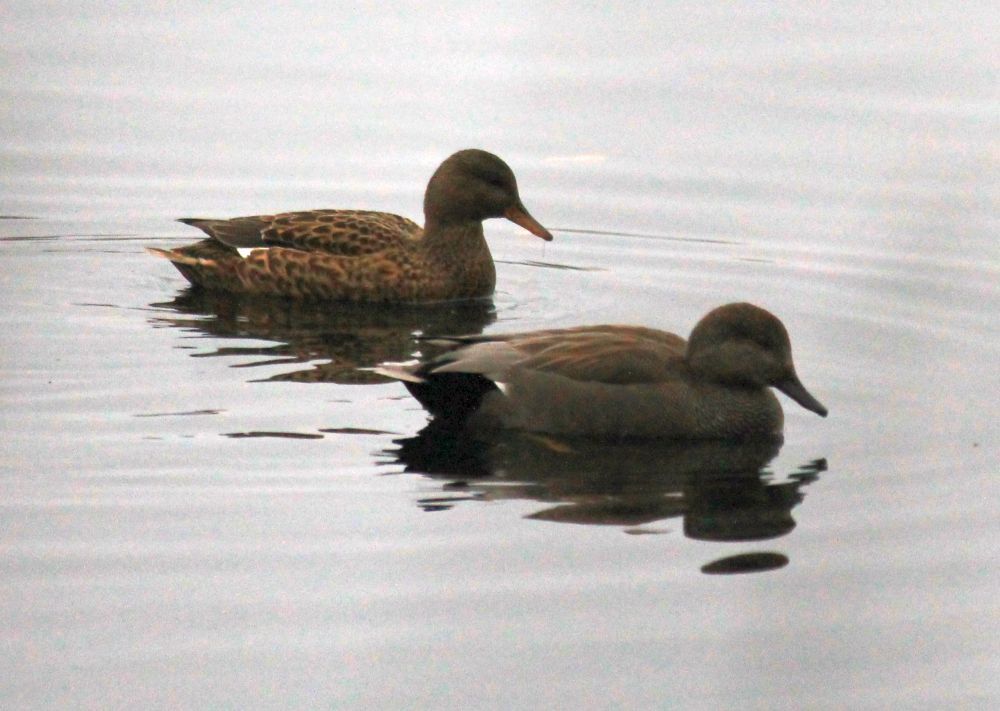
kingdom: Animalia
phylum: Chordata
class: Aves
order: Anseriformes
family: Anatidae
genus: Mareca
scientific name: Mareca strepera
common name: Gadwall
